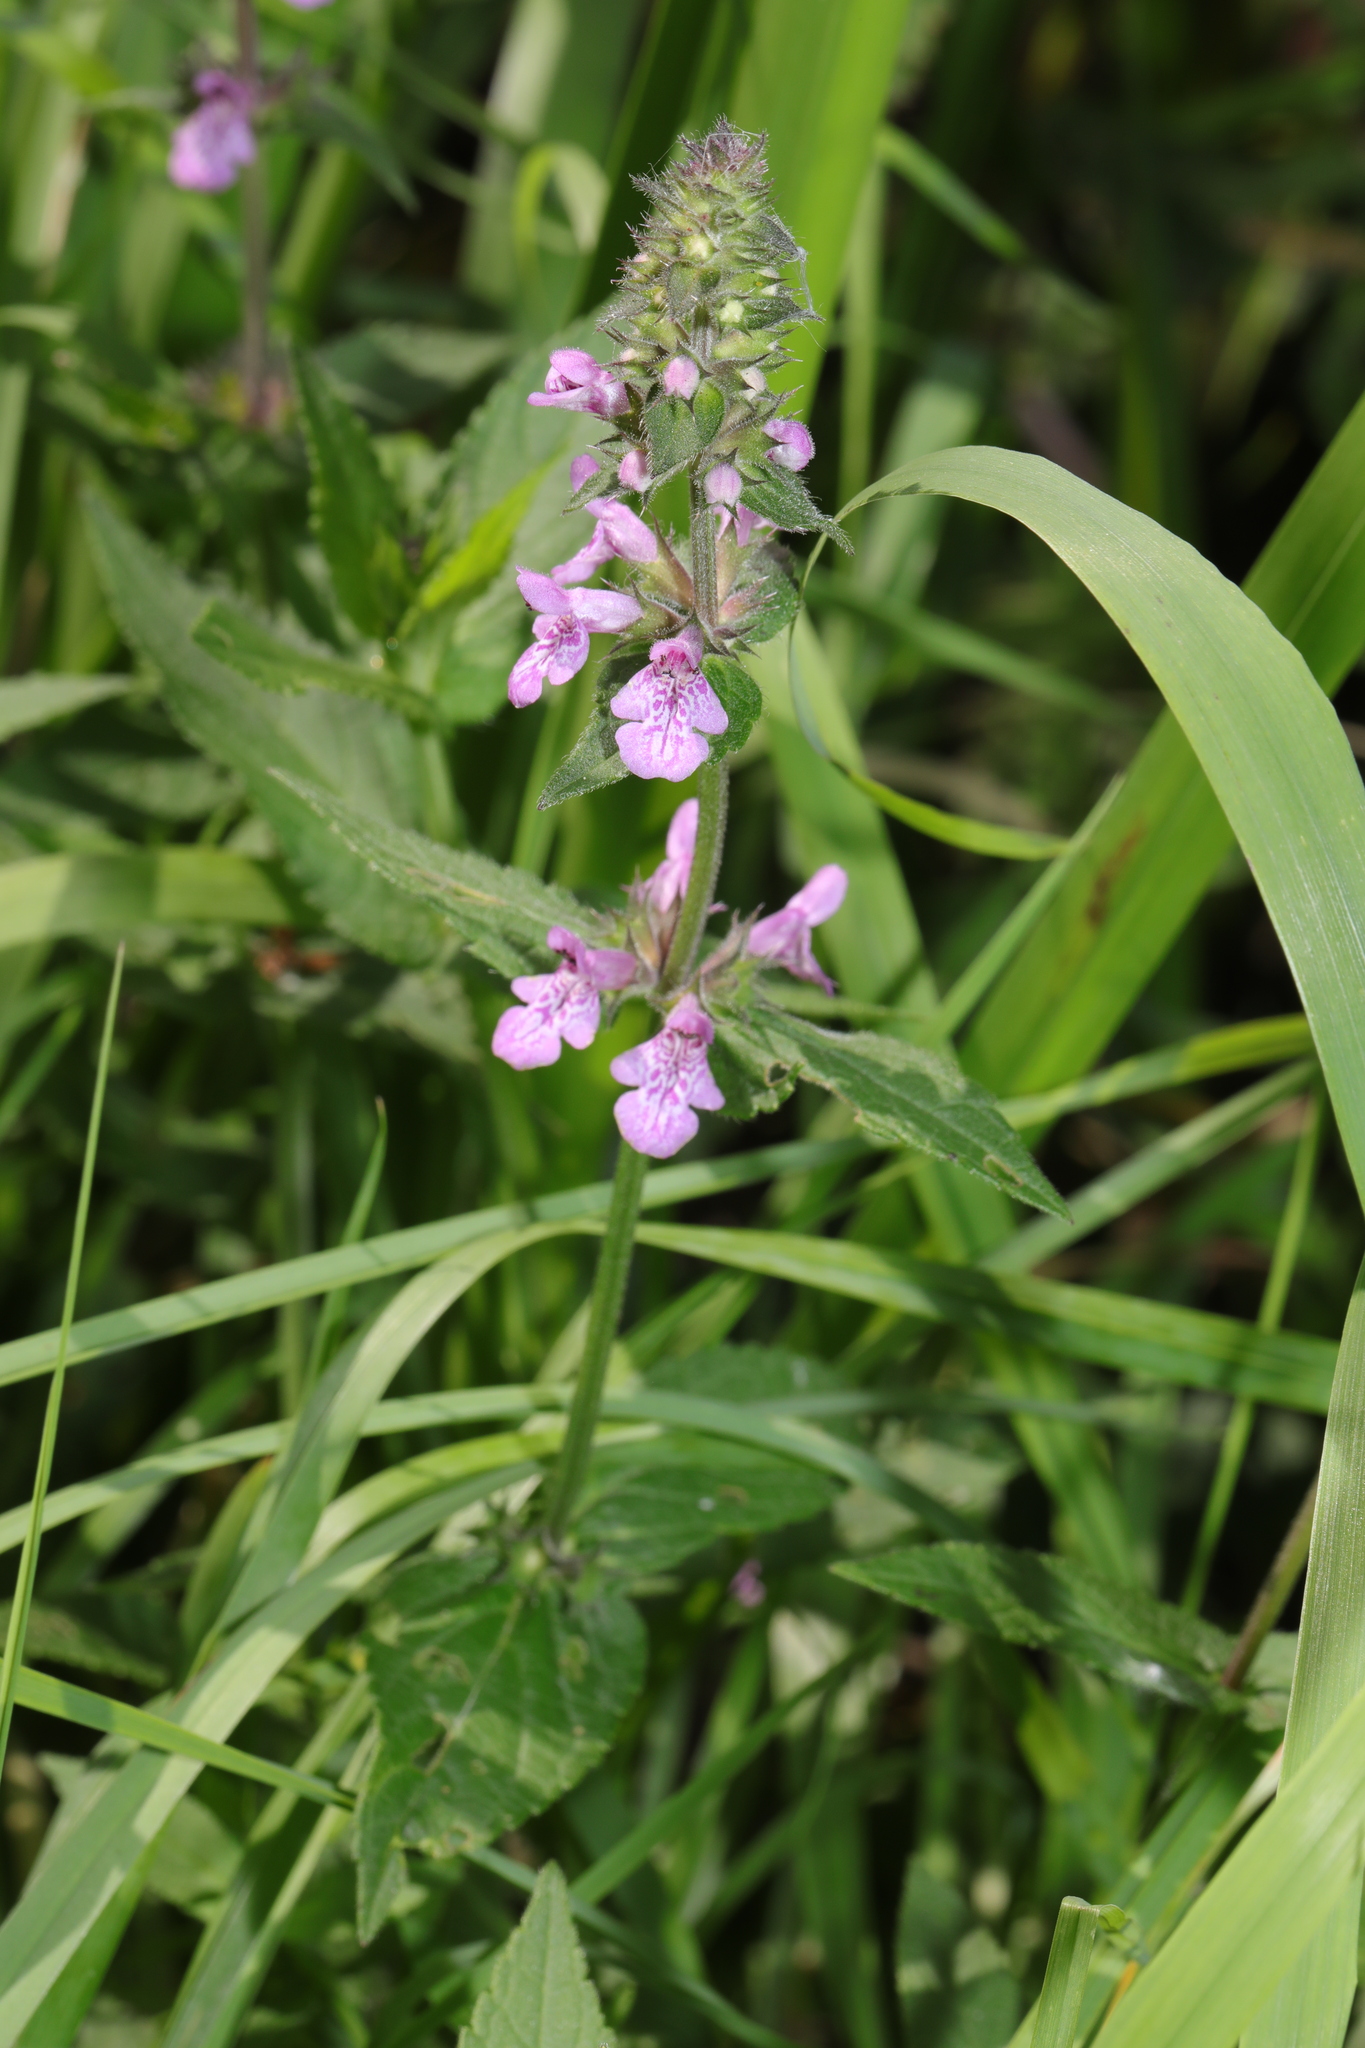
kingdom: Plantae
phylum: Tracheophyta
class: Magnoliopsida
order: Lamiales
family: Lamiaceae
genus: Stachys
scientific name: Stachys palustris
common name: Marsh woundwort
